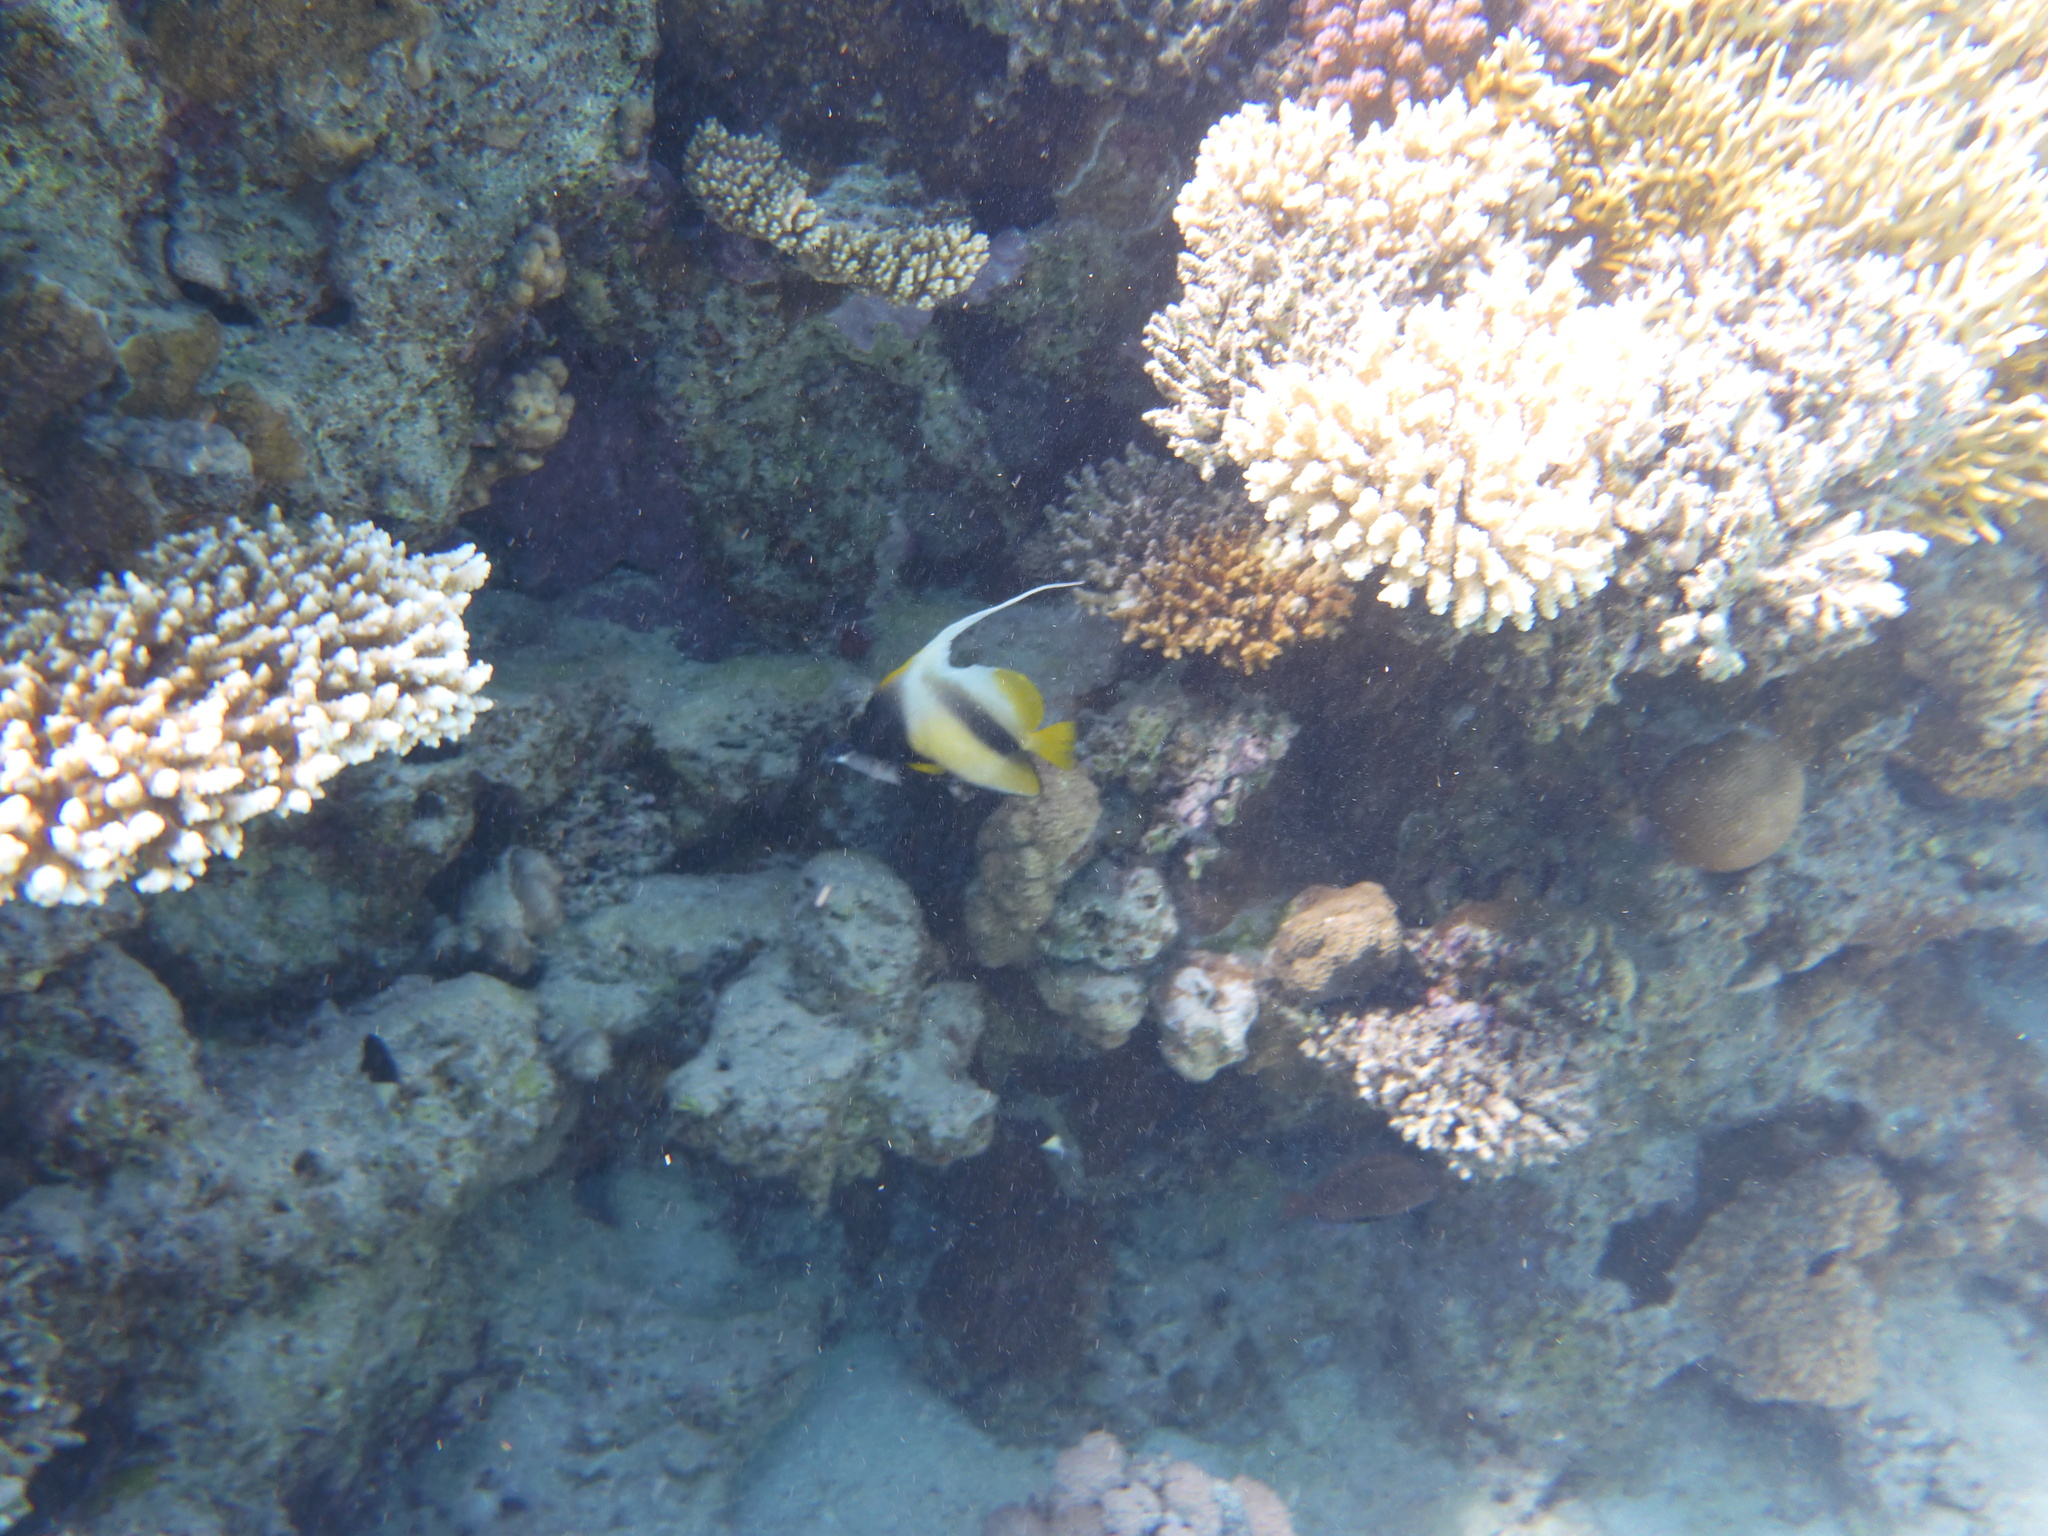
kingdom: Animalia
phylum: Chordata
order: Perciformes
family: Chaetodontidae
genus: Heniochus
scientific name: Heniochus intermedius
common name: Red sea bannerfish
